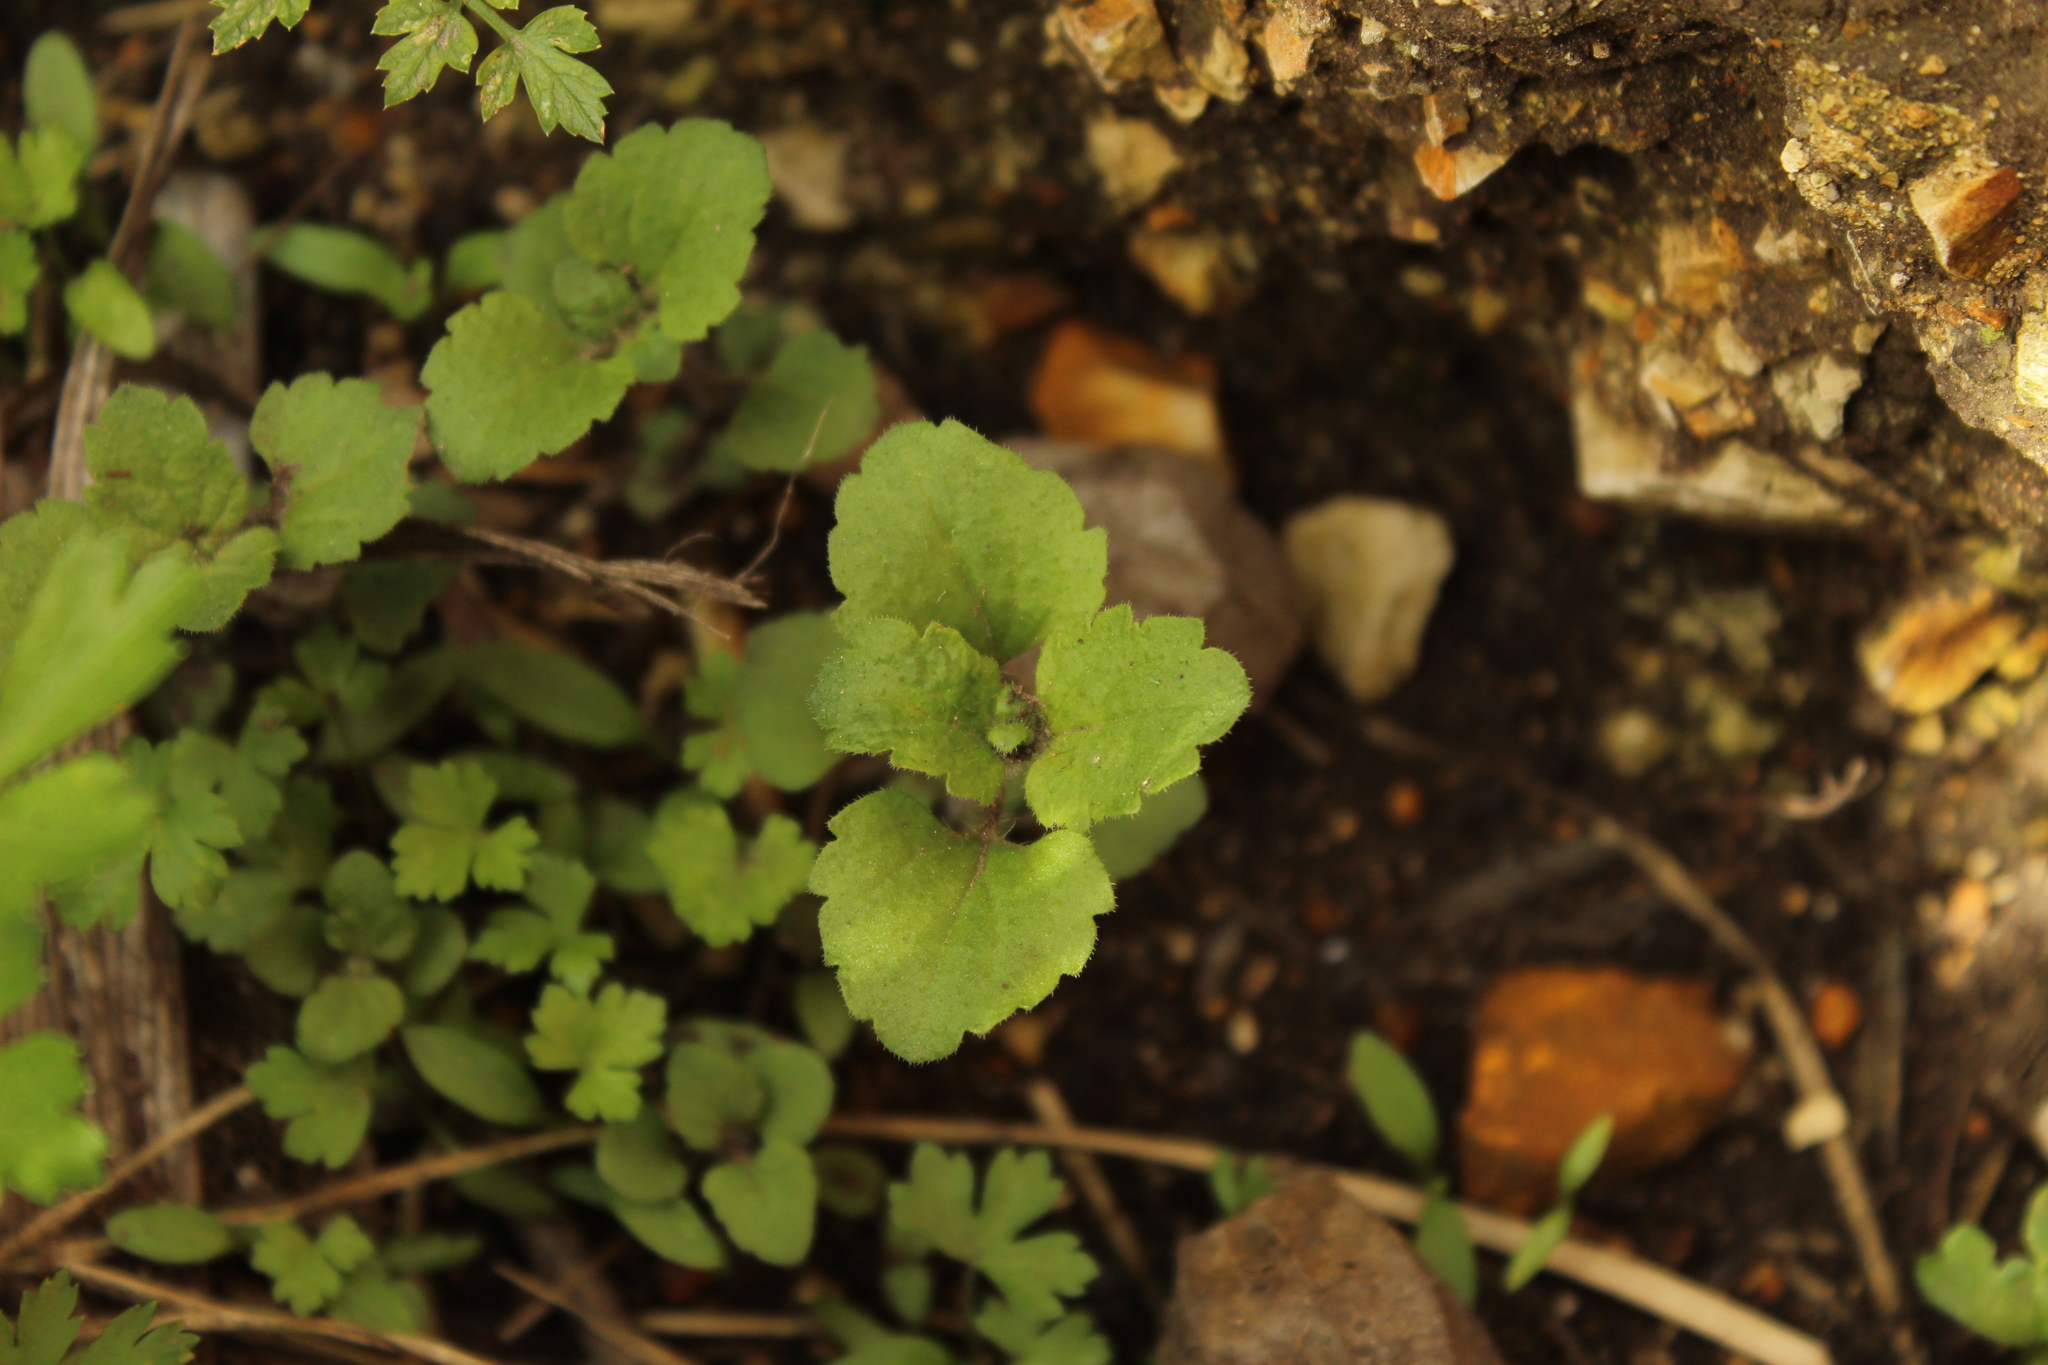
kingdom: Plantae
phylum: Tracheophyta
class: Magnoliopsida
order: Lamiales
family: Plantaginaceae
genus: Veronica
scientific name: Veronica persica
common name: Common field-speedwell
